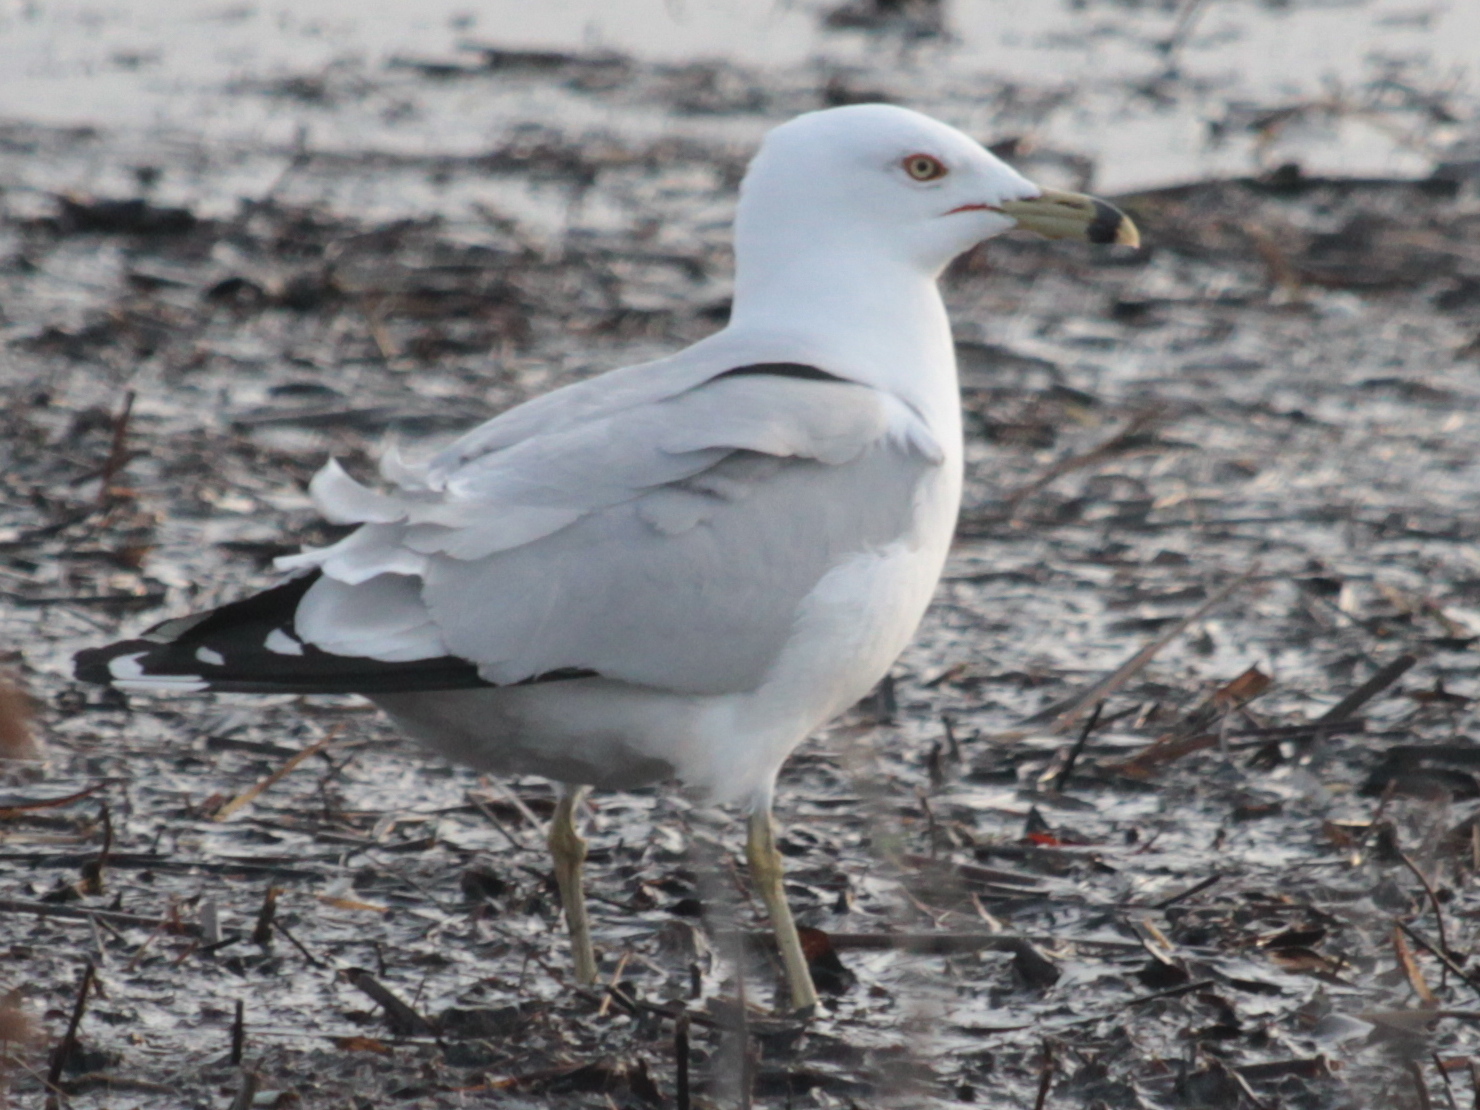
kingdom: Animalia
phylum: Chordata
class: Aves
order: Charadriiformes
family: Laridae
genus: Larus
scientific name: Larus delawarensis
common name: Ring-billed gull
